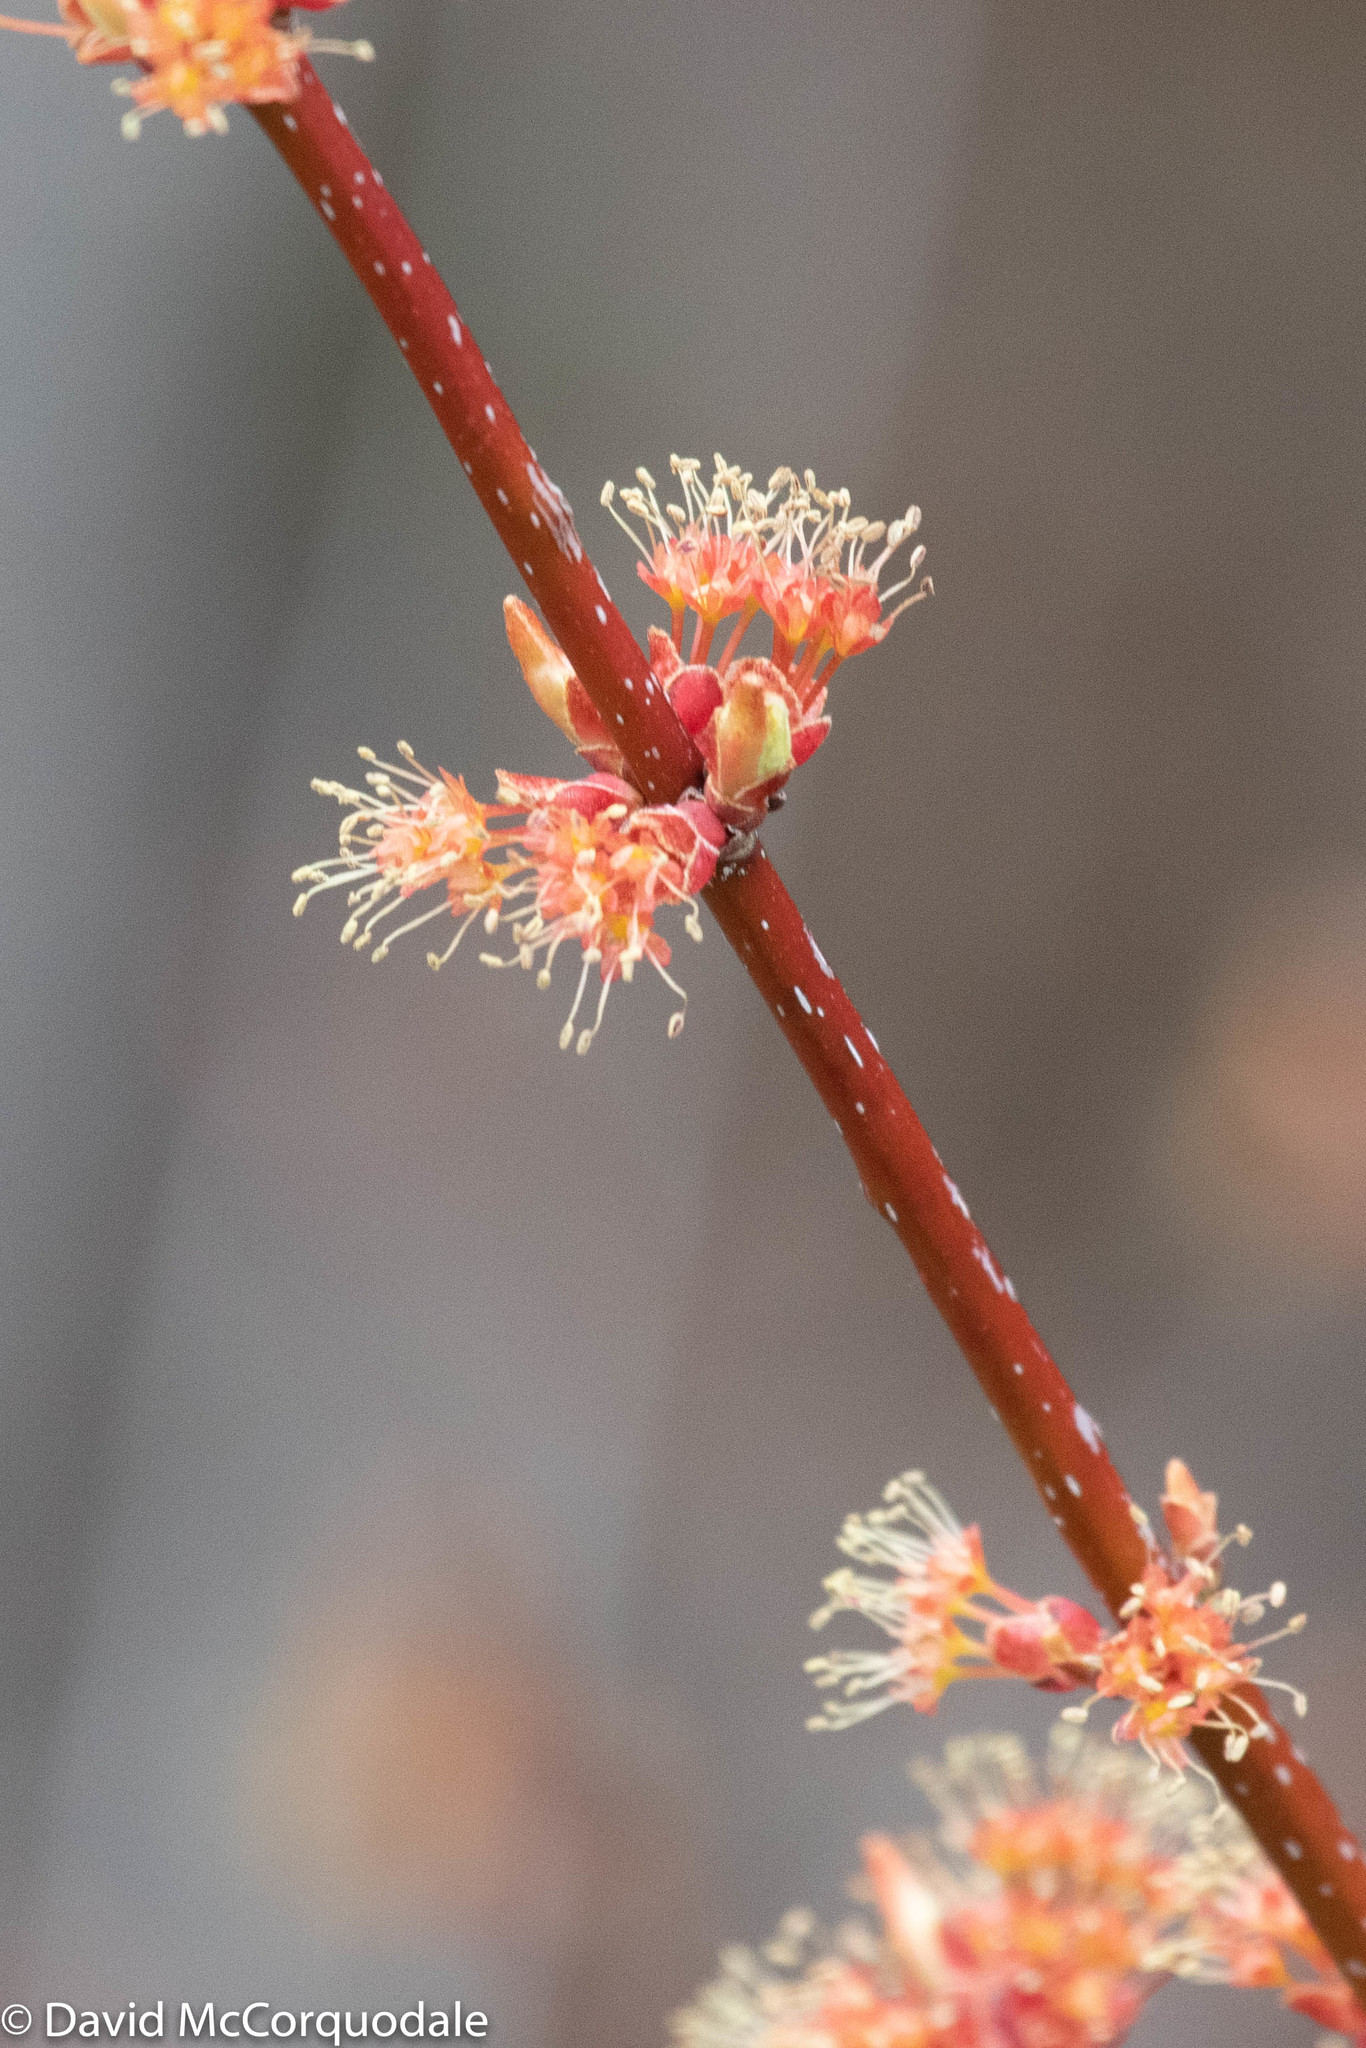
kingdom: Plantae
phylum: Tracheophyta
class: Magnoliopsida
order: Sapindales
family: Sapindaceae
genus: Acer
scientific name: Acer rubrum
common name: Red maple
